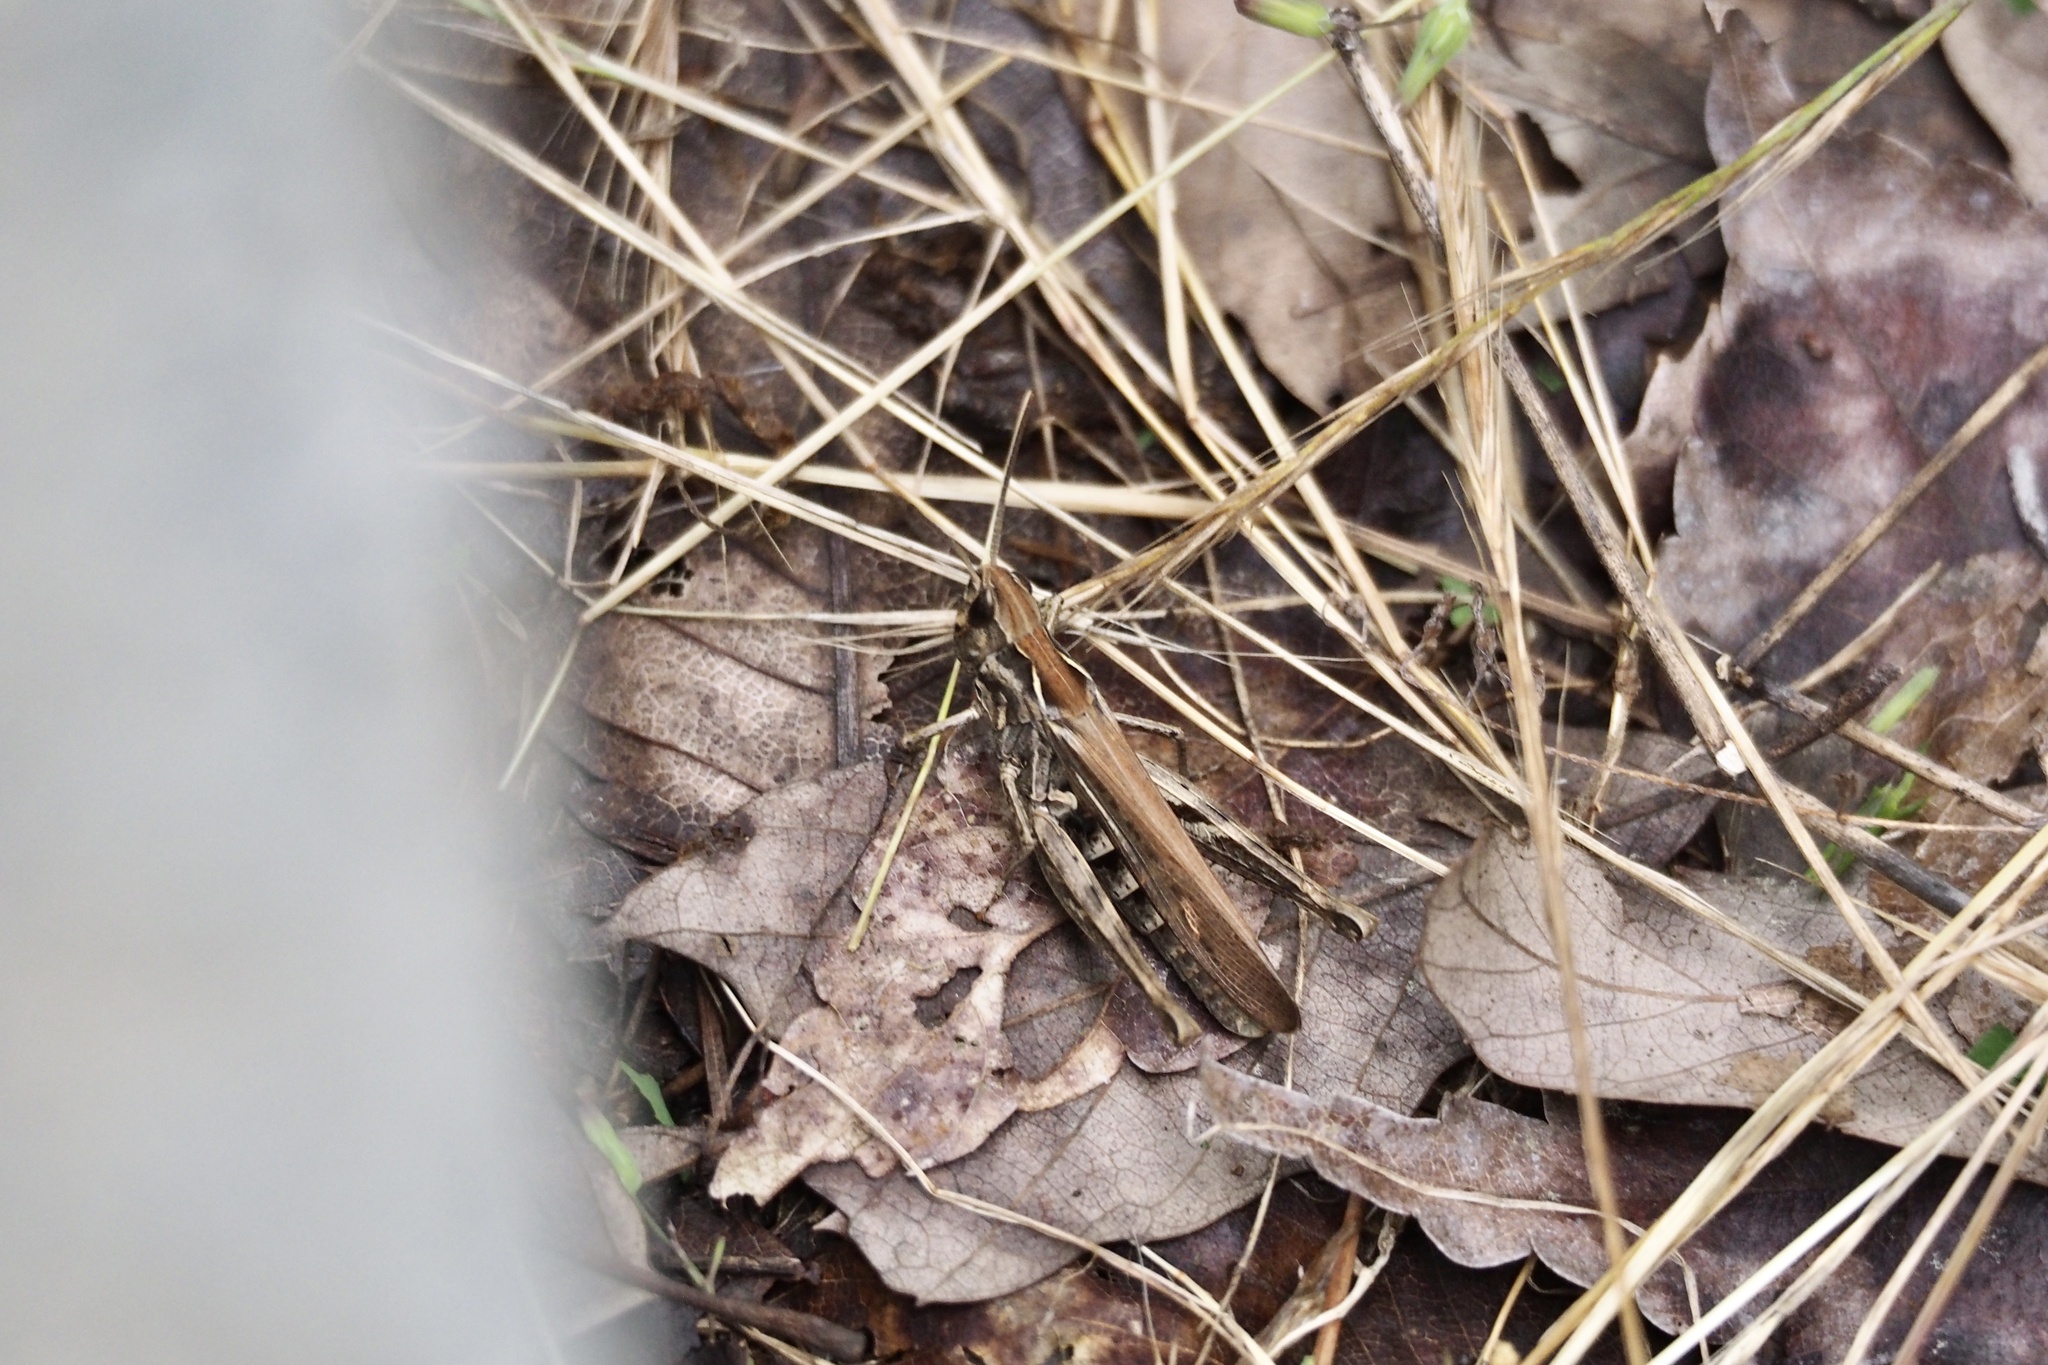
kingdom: Animalia
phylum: Arthropoda
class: Insecta
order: Orthoptera
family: Acrididae
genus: Chorthippus
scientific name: Chorthippus maritimus
